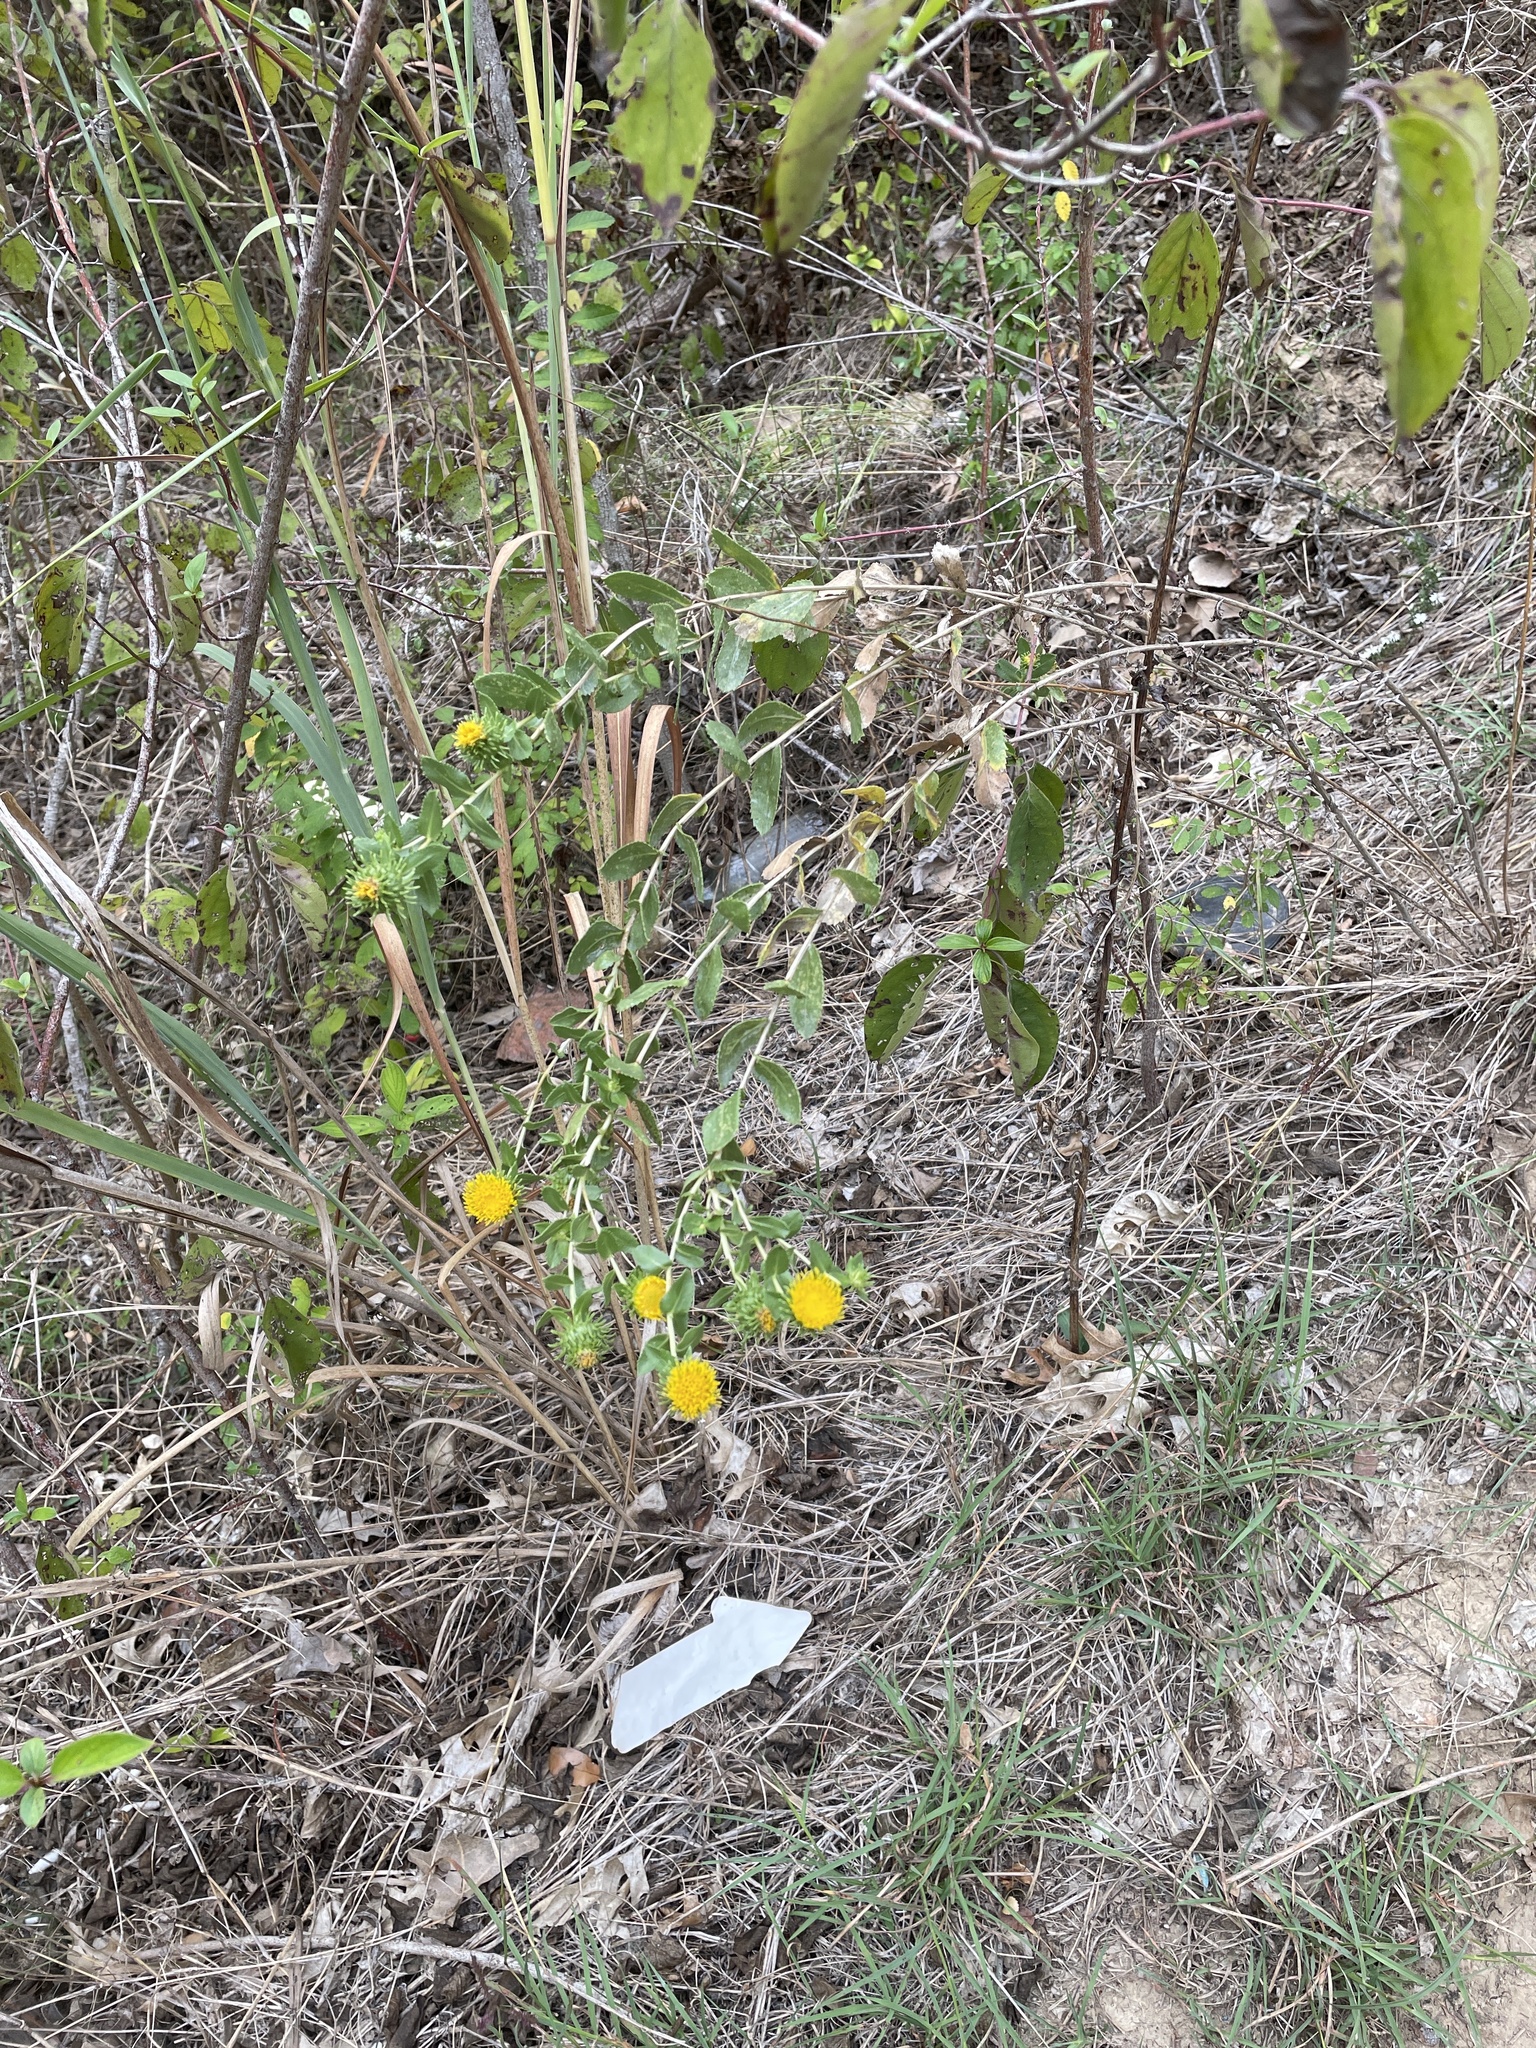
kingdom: Plantae
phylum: Tracheophyta
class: Magnoliopsida
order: Asterales
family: Asteraceae
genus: Grindelia
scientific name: Grindelia nuda
